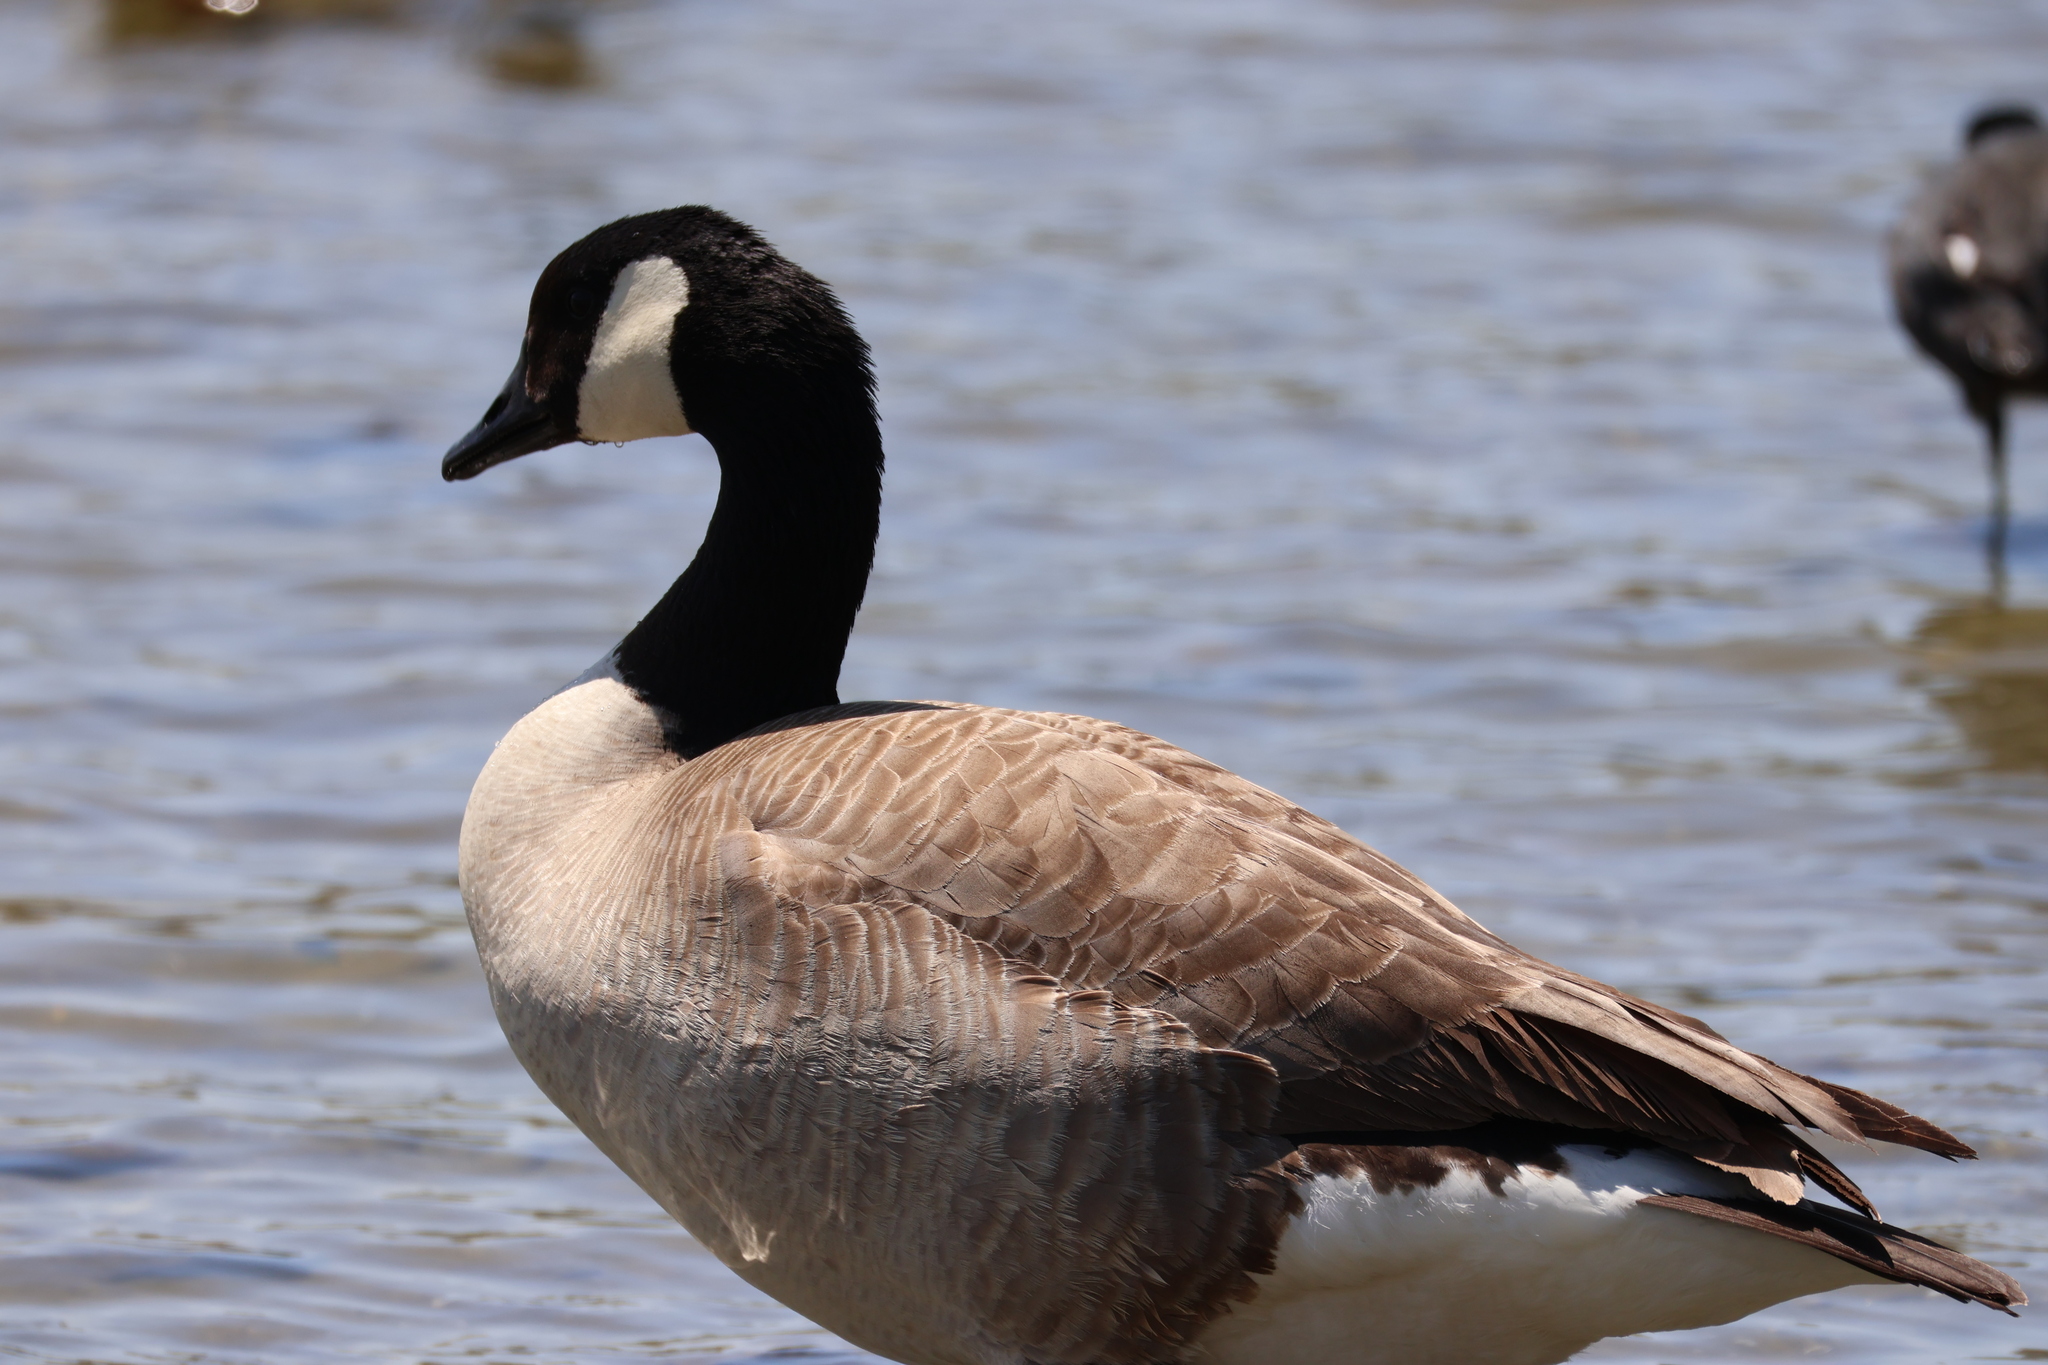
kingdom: Animalia
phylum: Chordata
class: Aves
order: Anseriformes
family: Anatidae
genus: Branta
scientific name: Branta canadensis
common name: Canada goose
